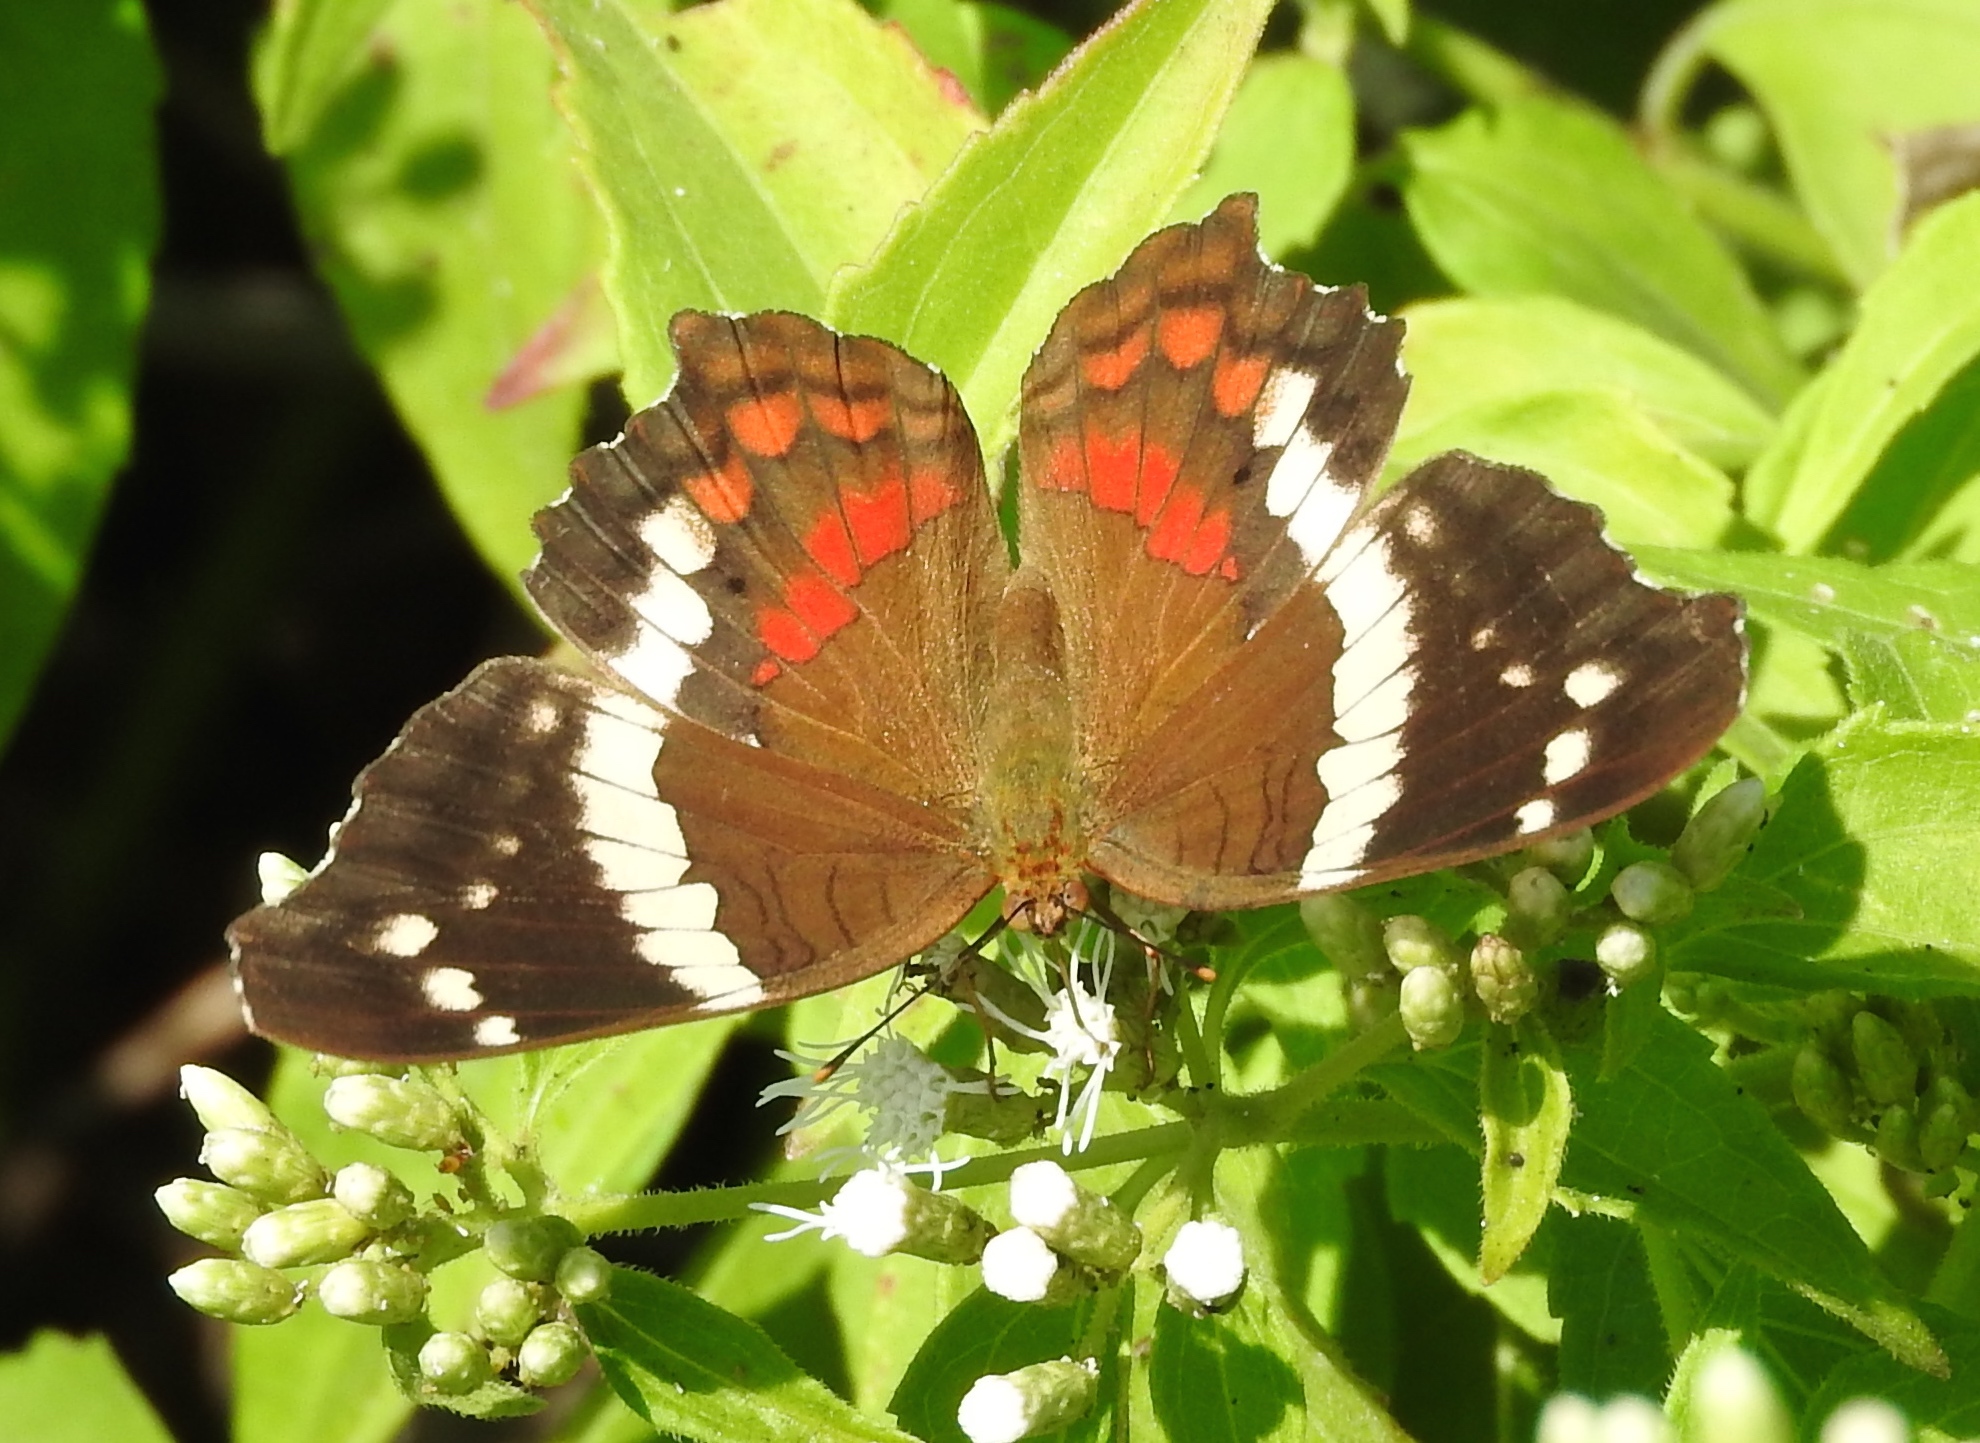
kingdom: Animalia
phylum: Arthropoda
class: Insecta
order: Lepidoptera
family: Nymphalidae
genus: Anartia
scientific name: Anartia fatima
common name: Banded peacock
